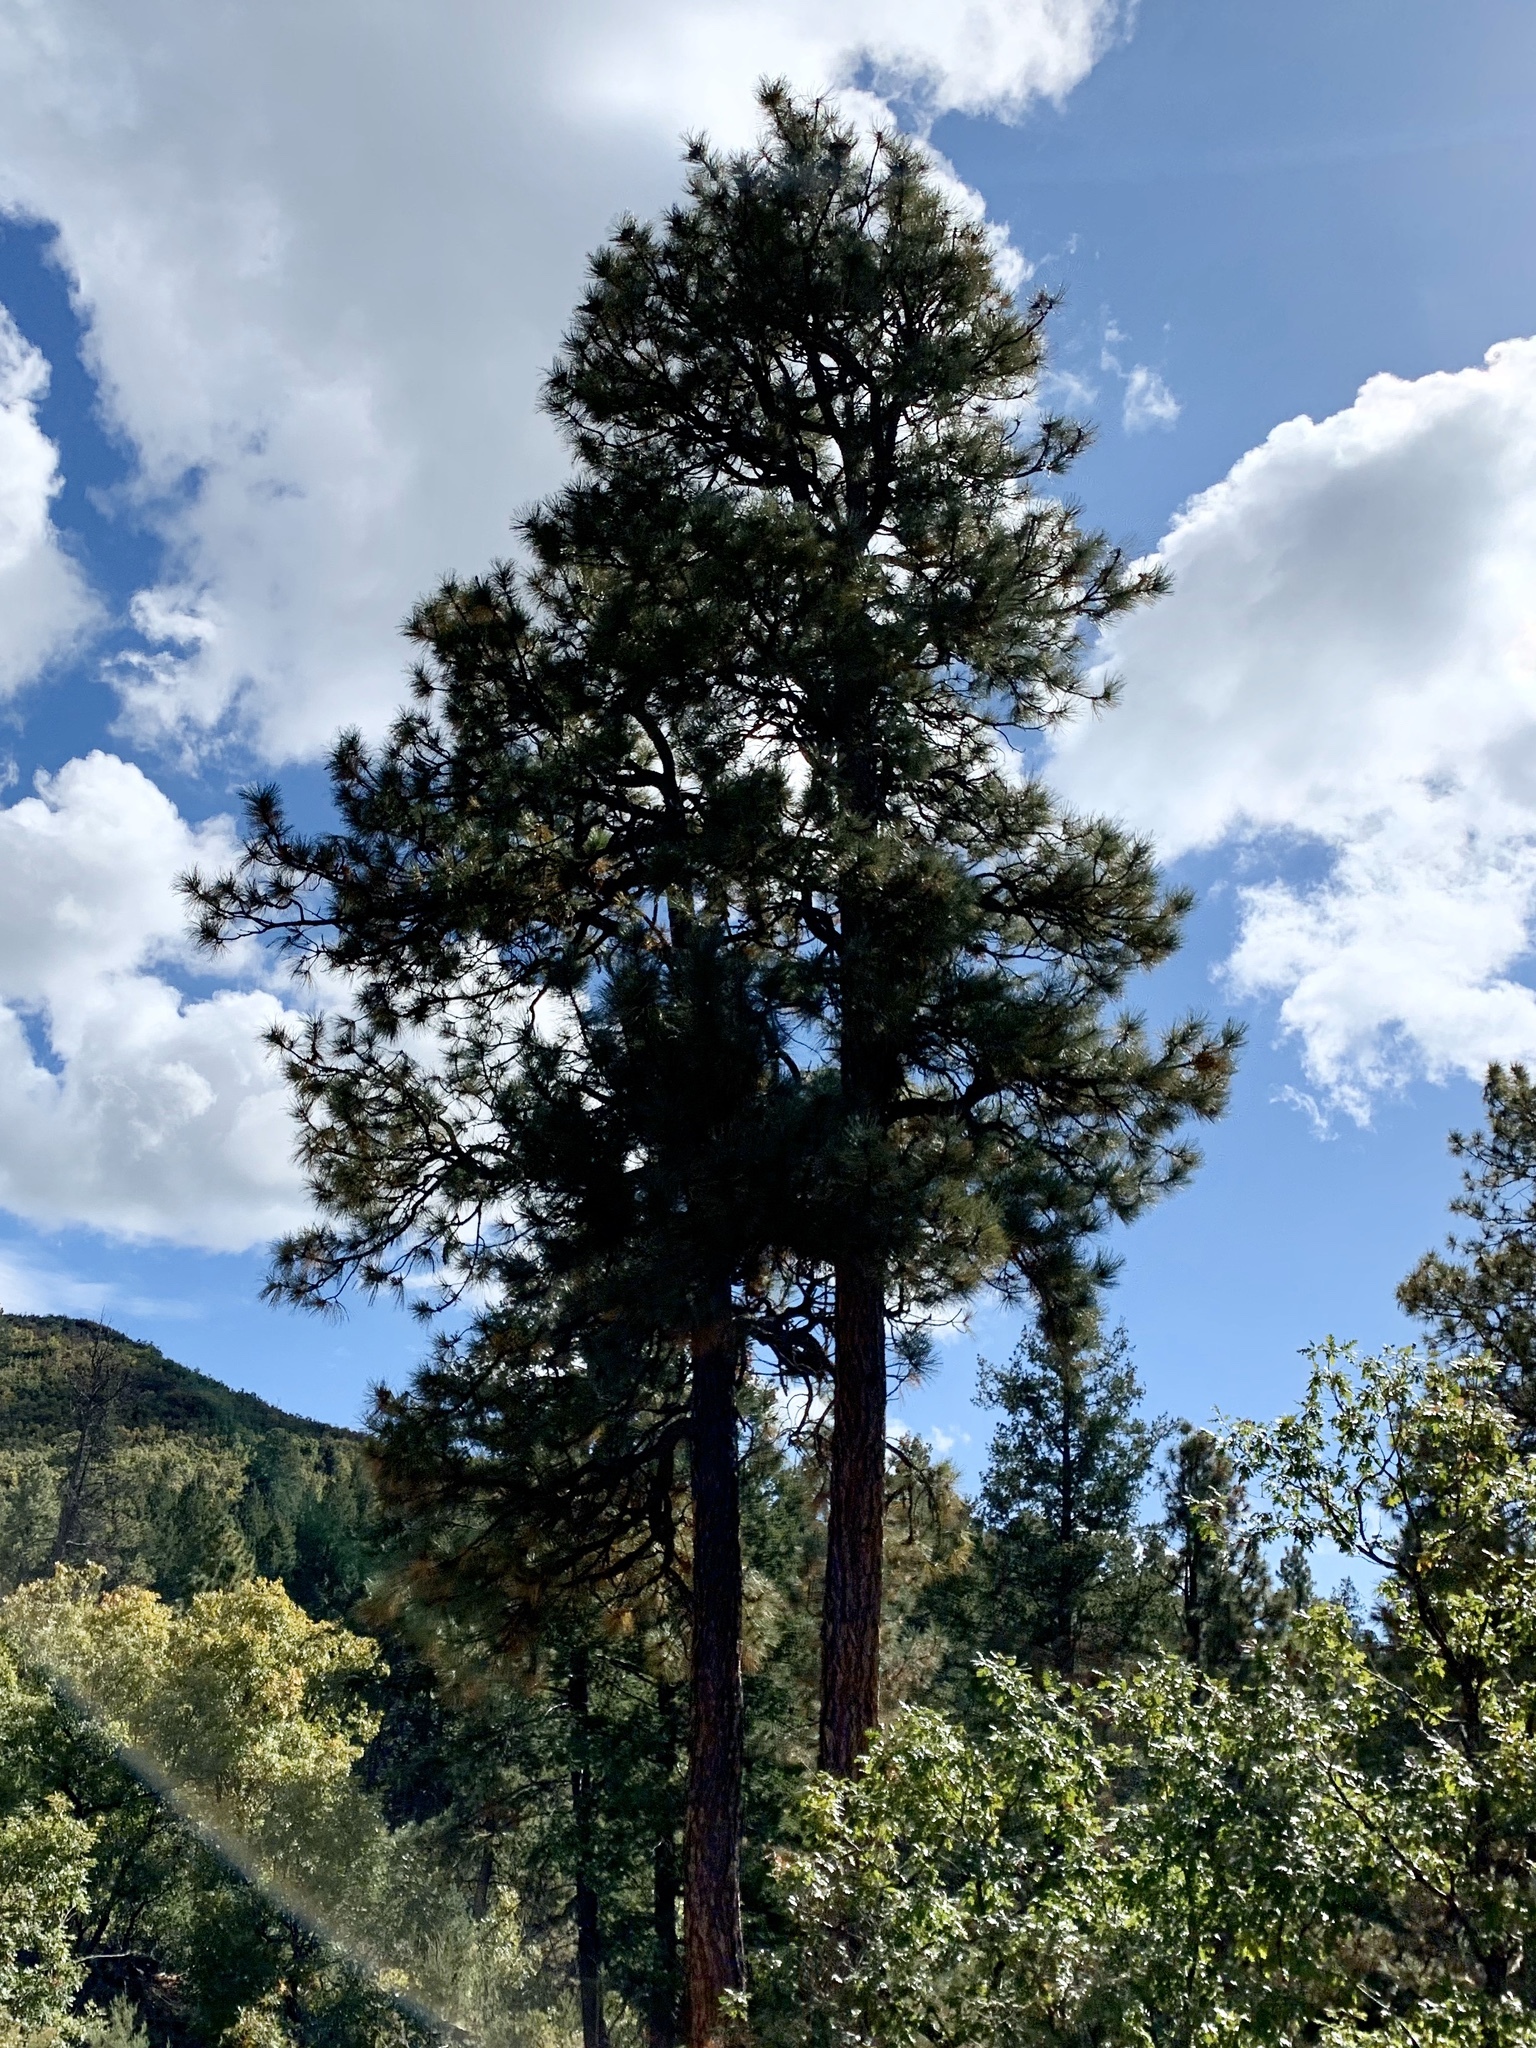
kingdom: Plantae
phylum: Tracheophyta
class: Pinopsida
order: Pinales
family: Pinaceae
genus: Pinus
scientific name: Pinus ponderosa
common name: Western yellow-pine
